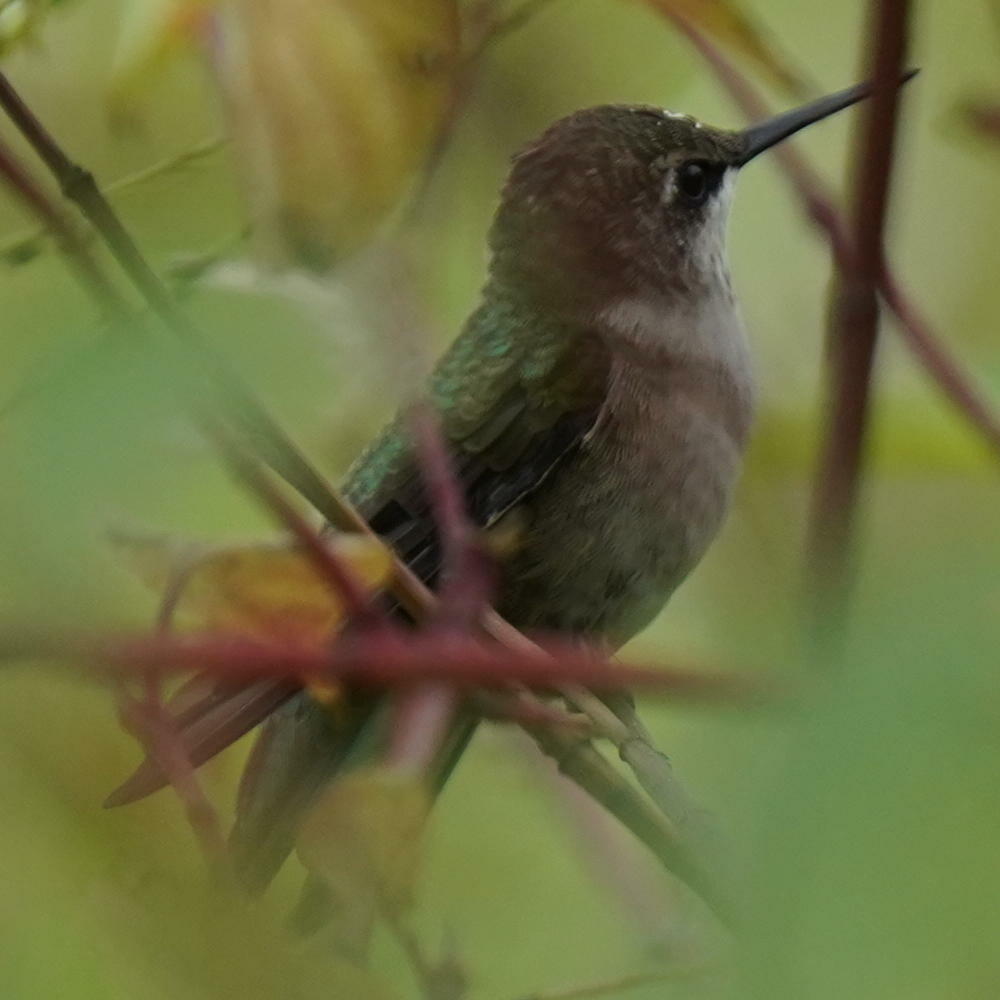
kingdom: Animalia
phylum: Chordata
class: Aves
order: Apodiformes
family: Trochilidae
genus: Archilochus
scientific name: Archilochus colubris
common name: Ruby-throated hummingbird
